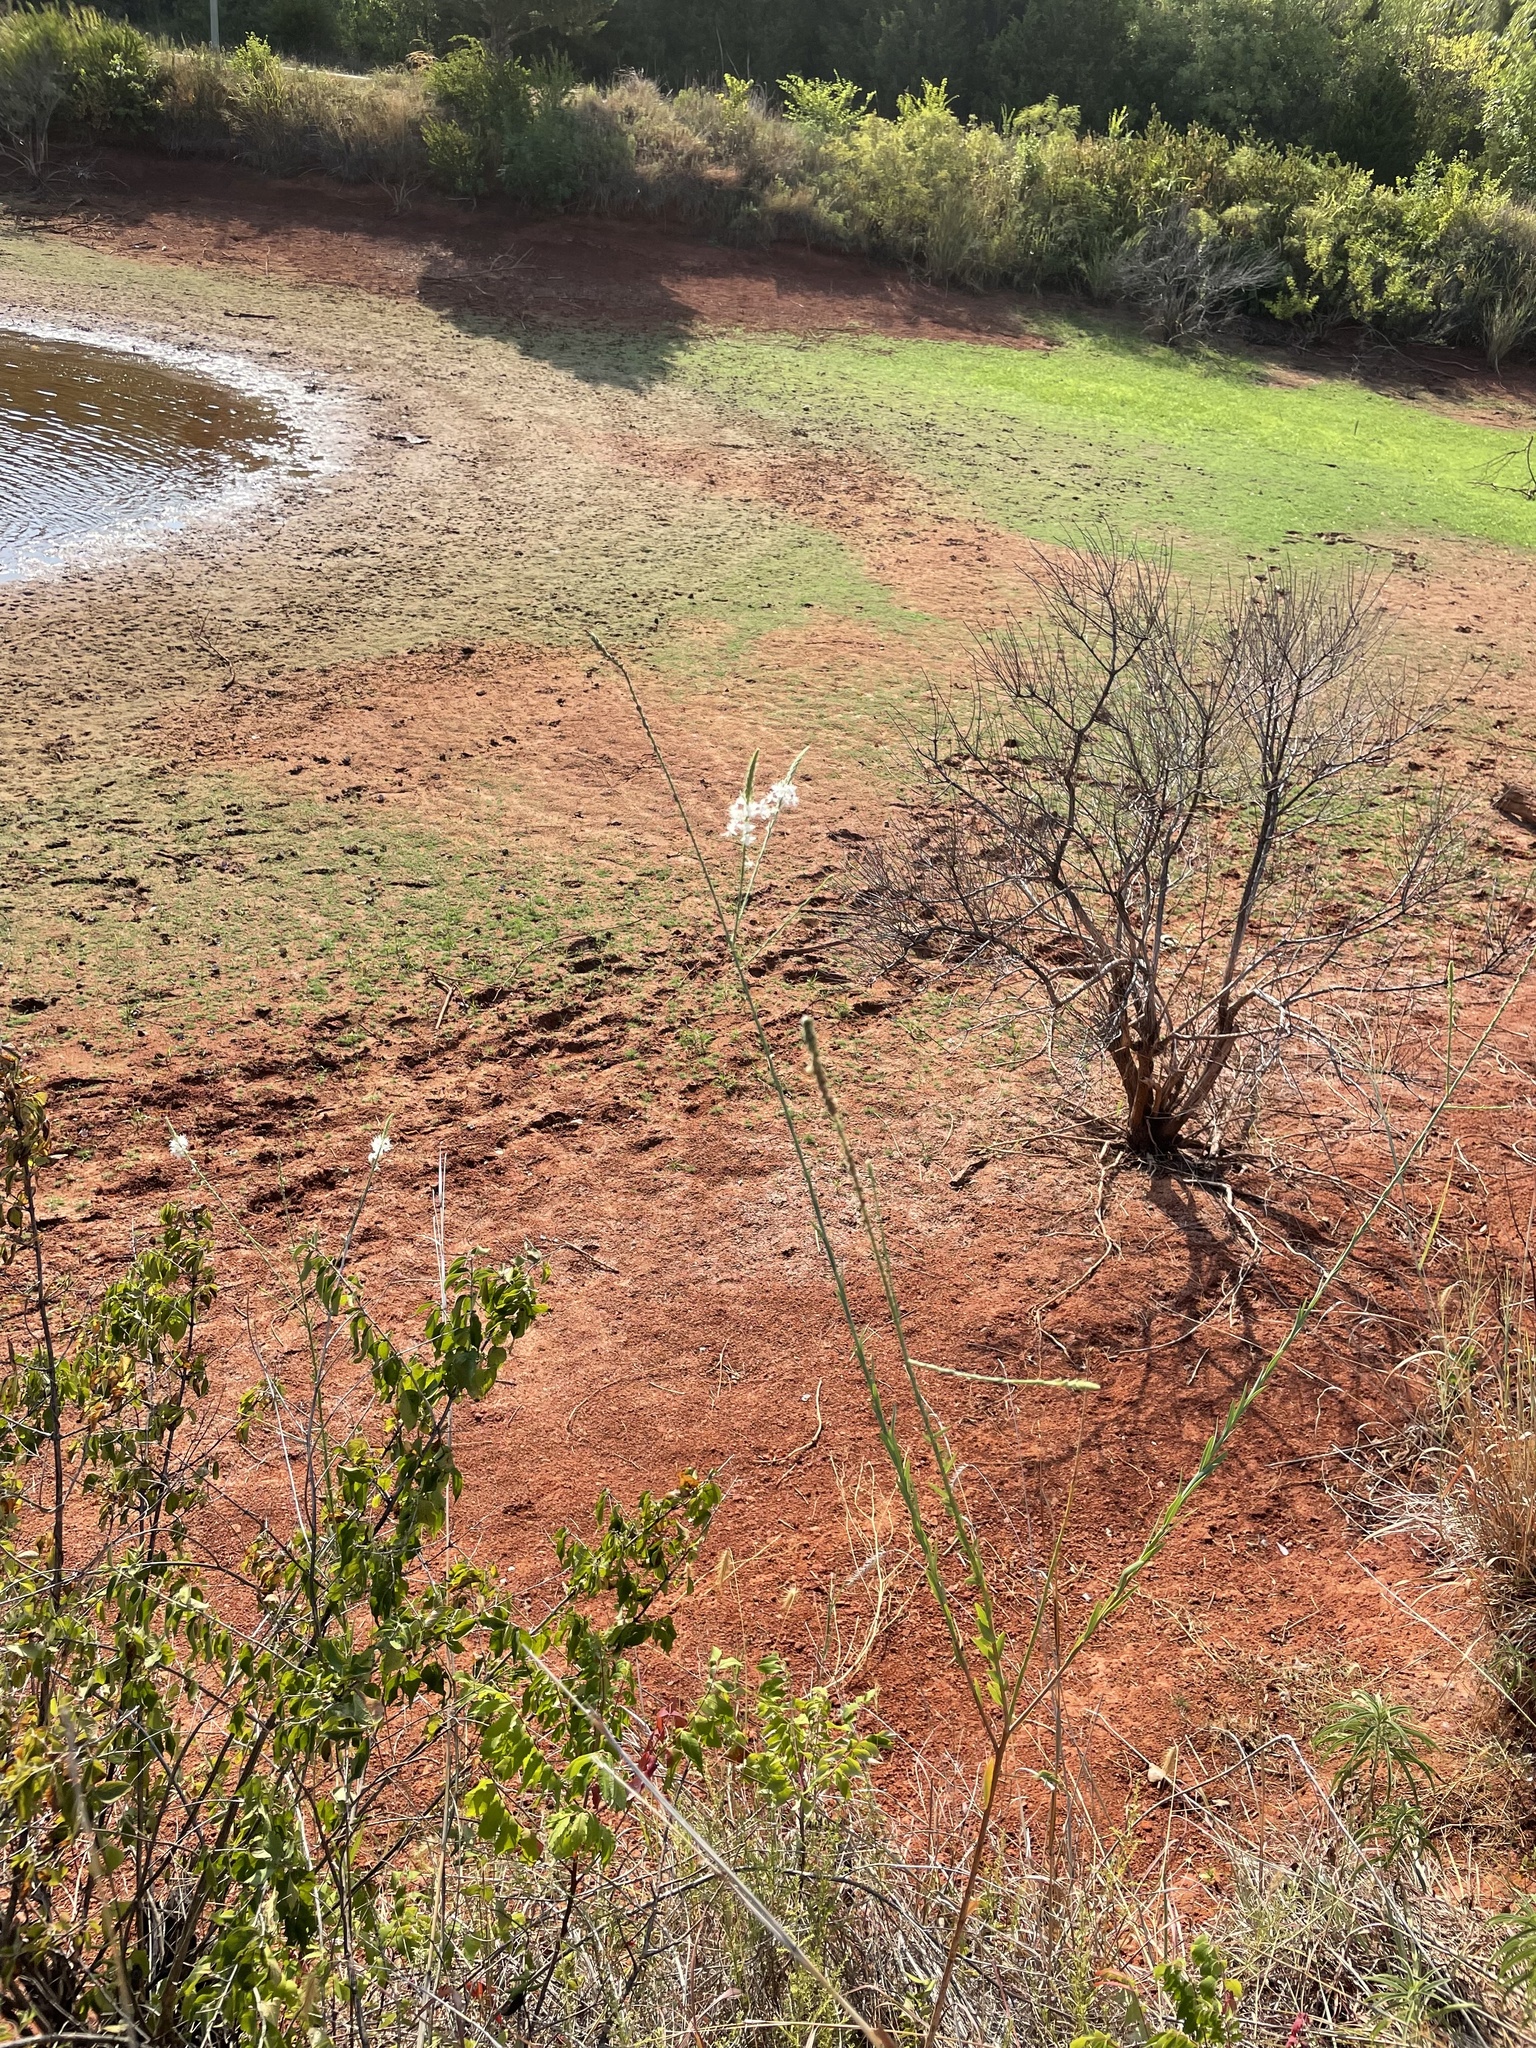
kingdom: Plantae
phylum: Tracheophyta
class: Magnoliopsida
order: Myrtales
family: Onagraceae
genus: Oenothera
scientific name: Oenothera glaucifolia
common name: False gaura
